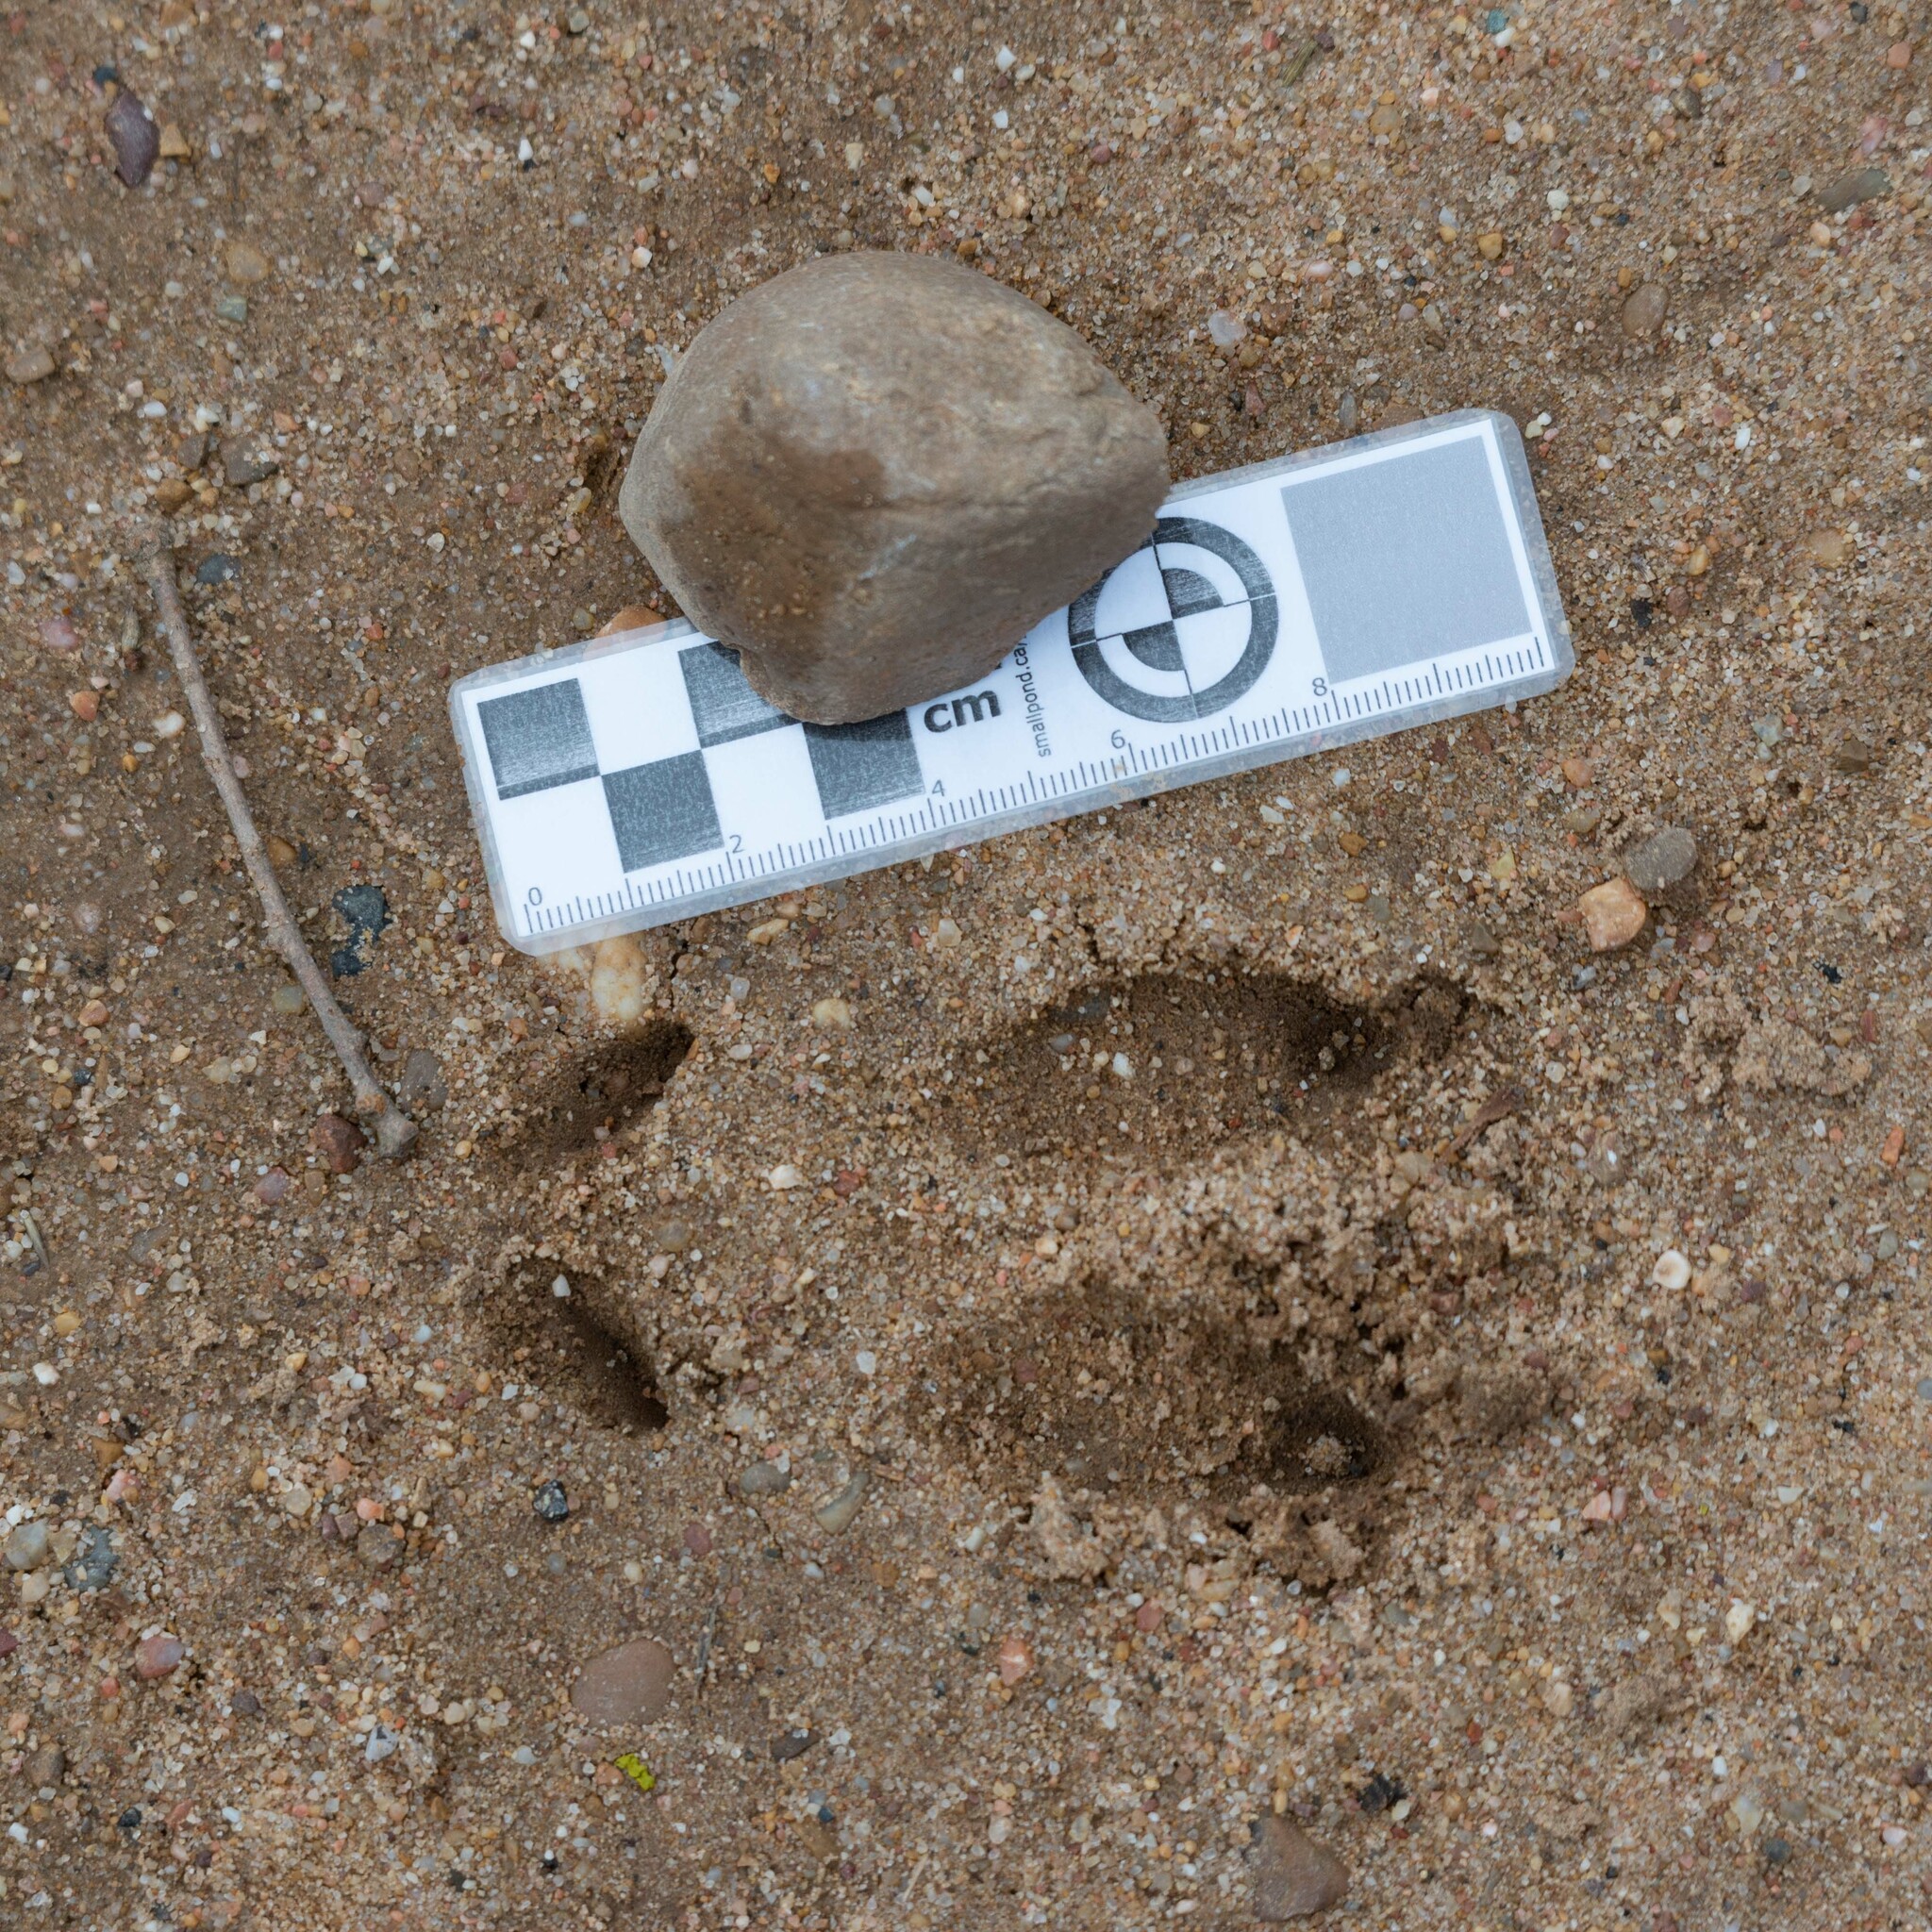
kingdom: Animalia
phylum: Chordata
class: Mammalia
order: Artiodactyla
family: Cervidae
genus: Capreolus
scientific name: Capreolus capreolus
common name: Western roe deer
